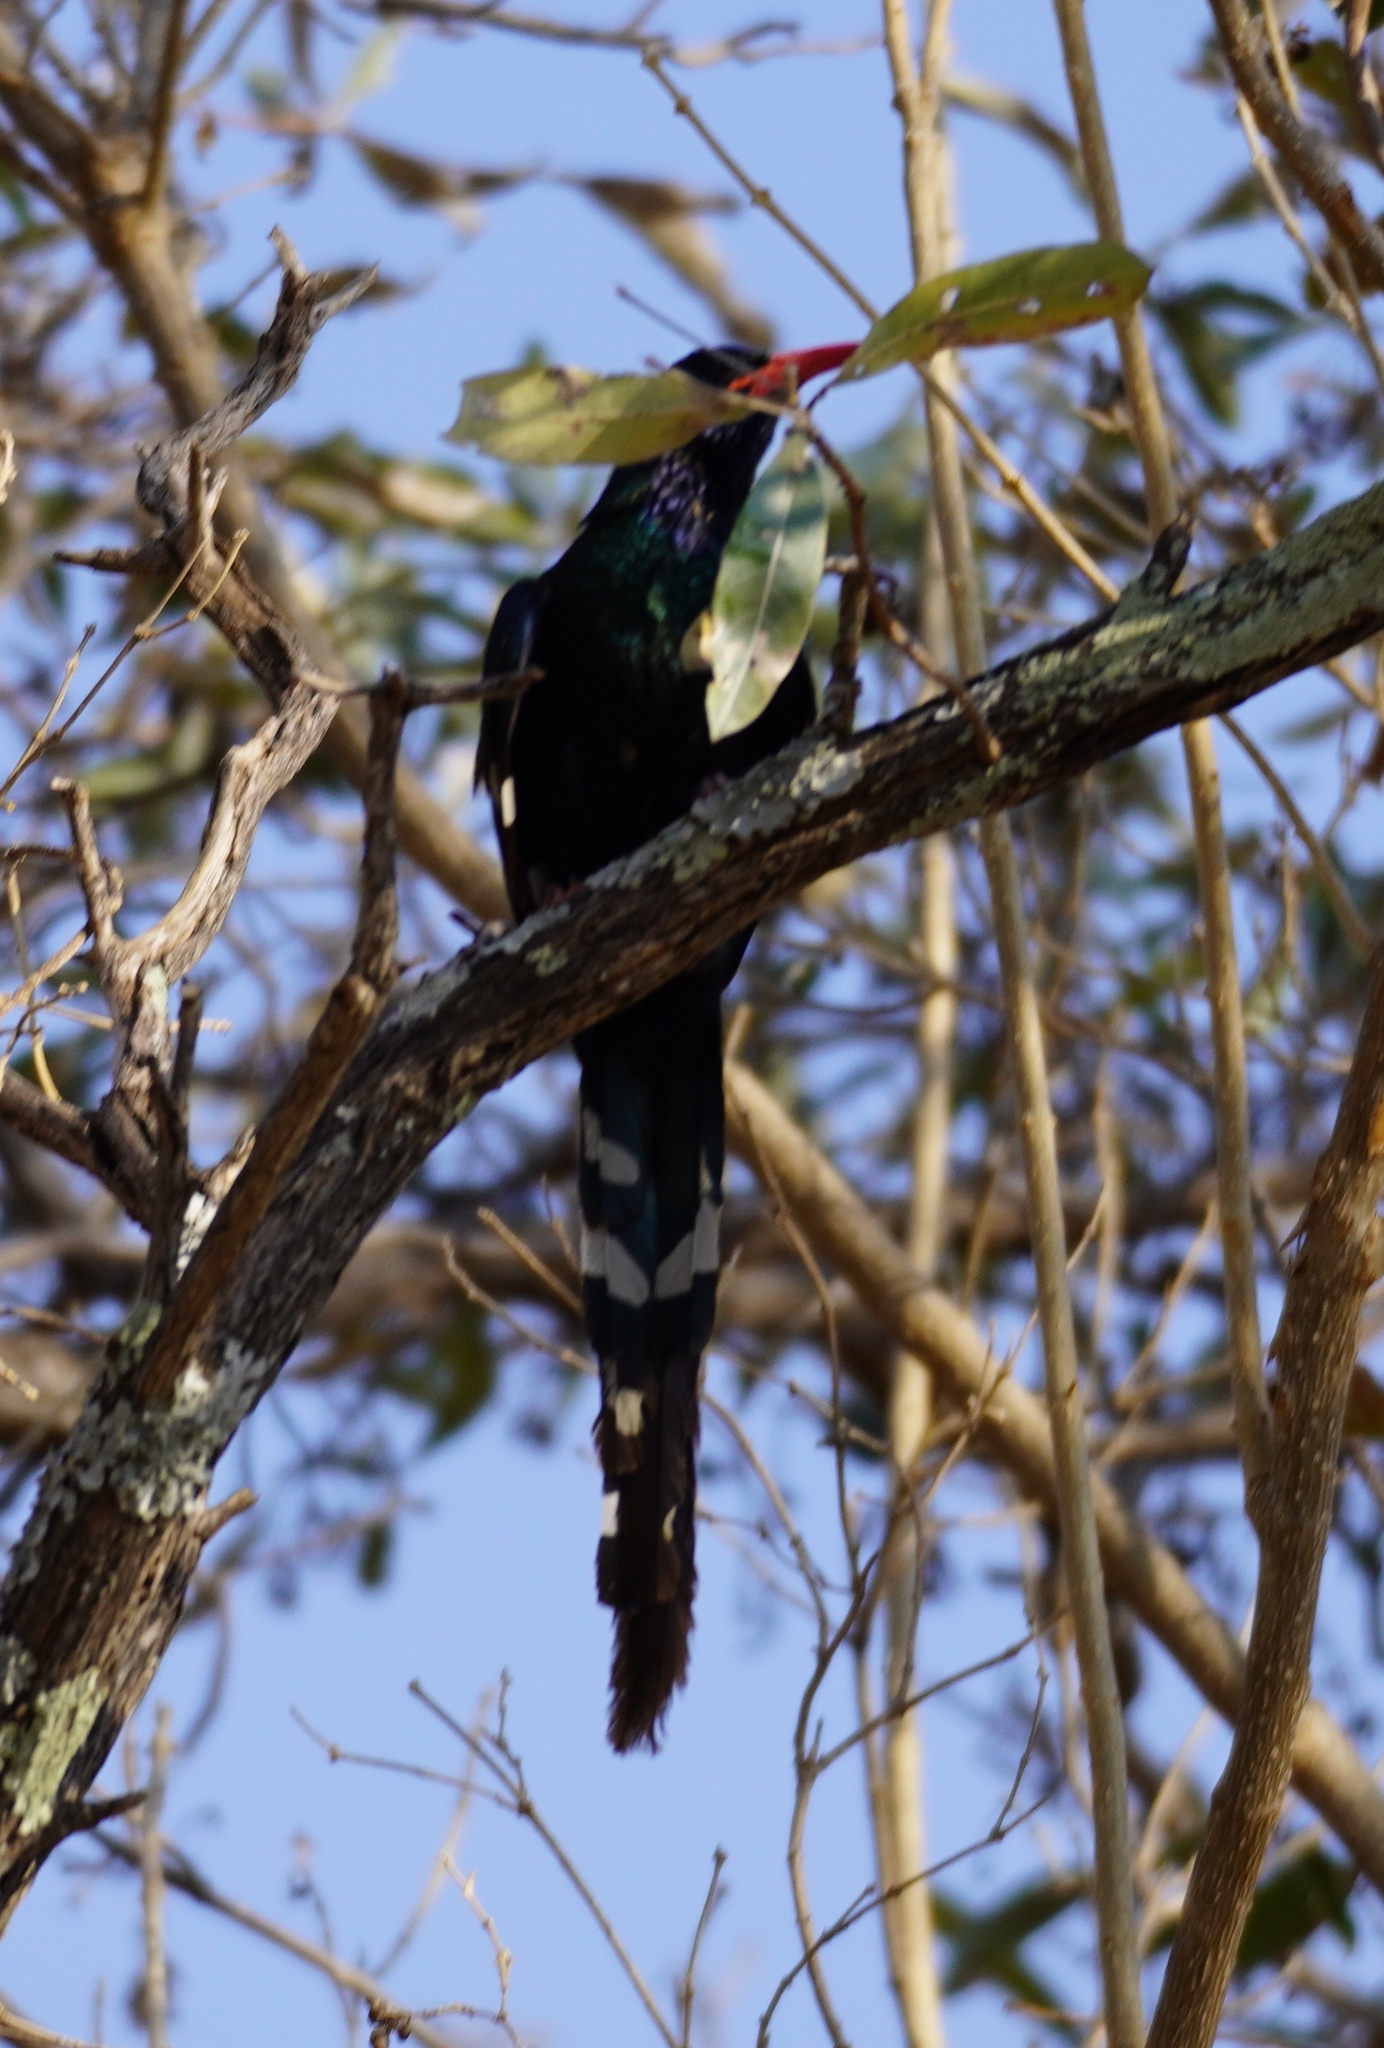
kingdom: Animalia
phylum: Chordata
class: Aves
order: Bucerotiformes
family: Phoeniculidae
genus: Phoeniculus
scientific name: Phoeniculus purpureus
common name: Green woodhoopoe
